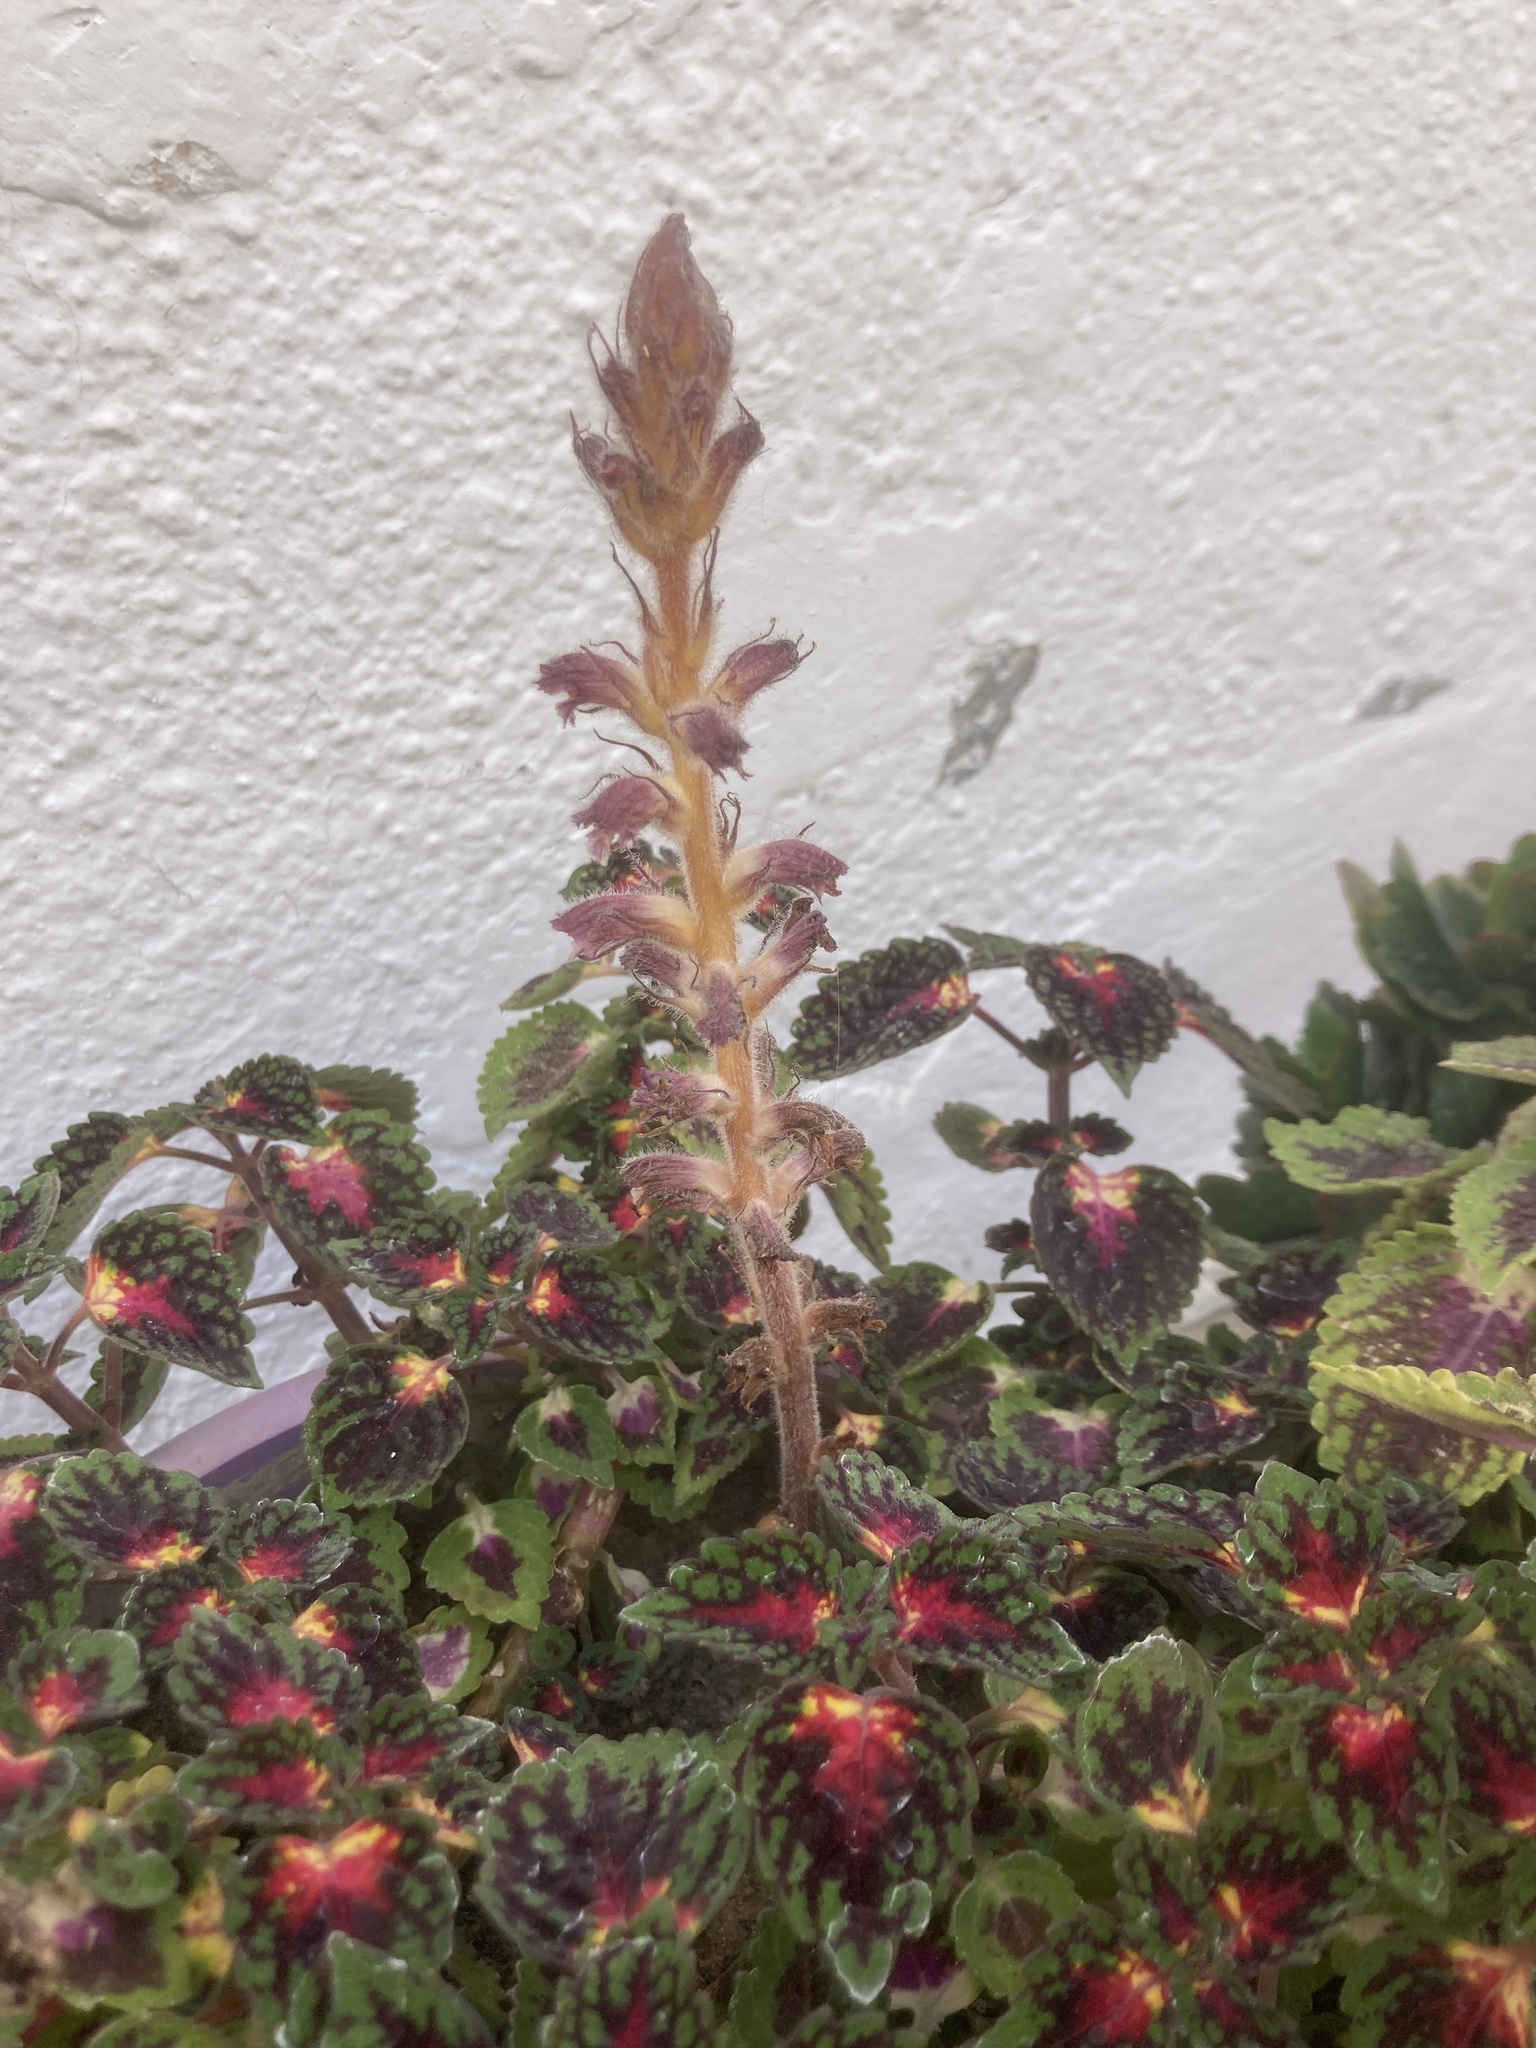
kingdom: Plantae
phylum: Tracheophyta
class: Magnoliopsida
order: Lamiales
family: Orobanchaceae
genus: Orobanche
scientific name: Orobanche pubescens
